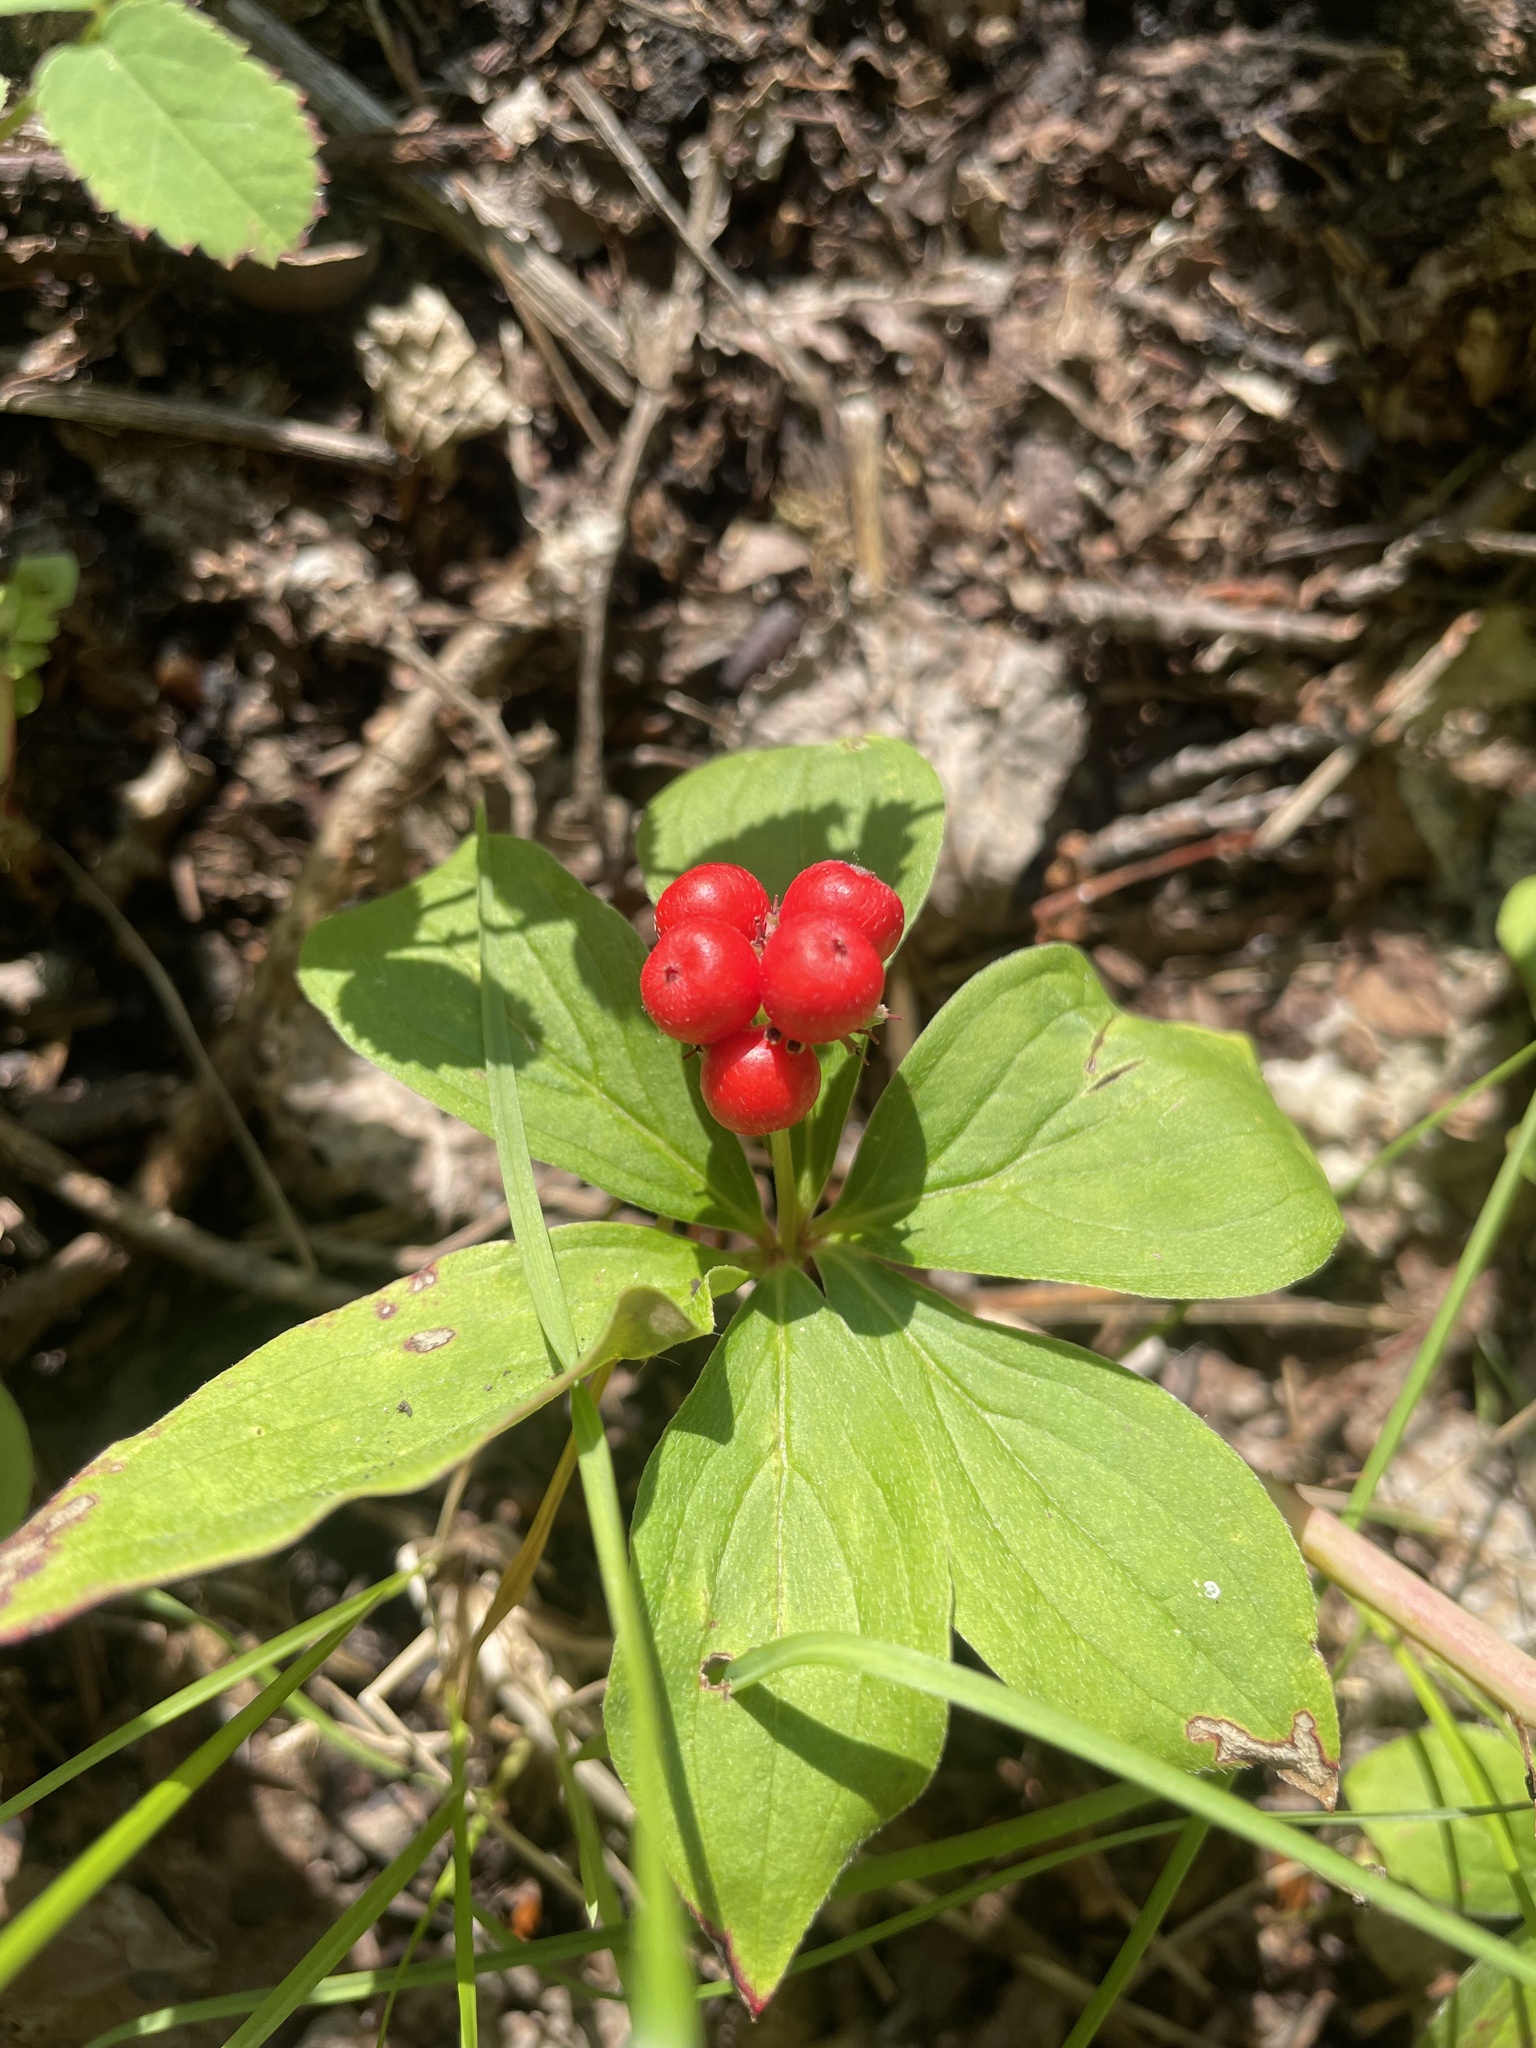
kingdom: Plantae
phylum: Tracheophyta
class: Magnoliopsida
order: Cornales
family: Cornaceae
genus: Cornus
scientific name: Cornus canadensis
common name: Creeping dogwood
